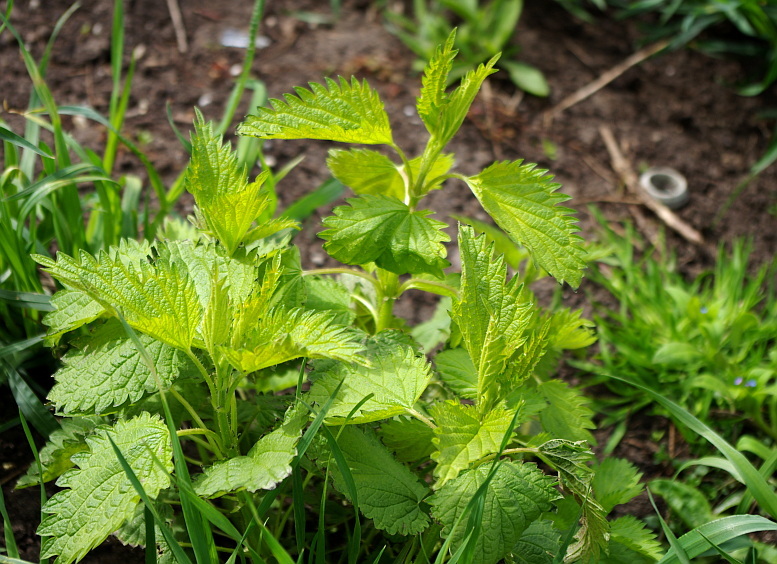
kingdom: Plantae
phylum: Tracheophyta
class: Magnoliopsida
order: Rosales
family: Urticaceae
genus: Urtica
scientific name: Urtica dioica
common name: Common nettle
